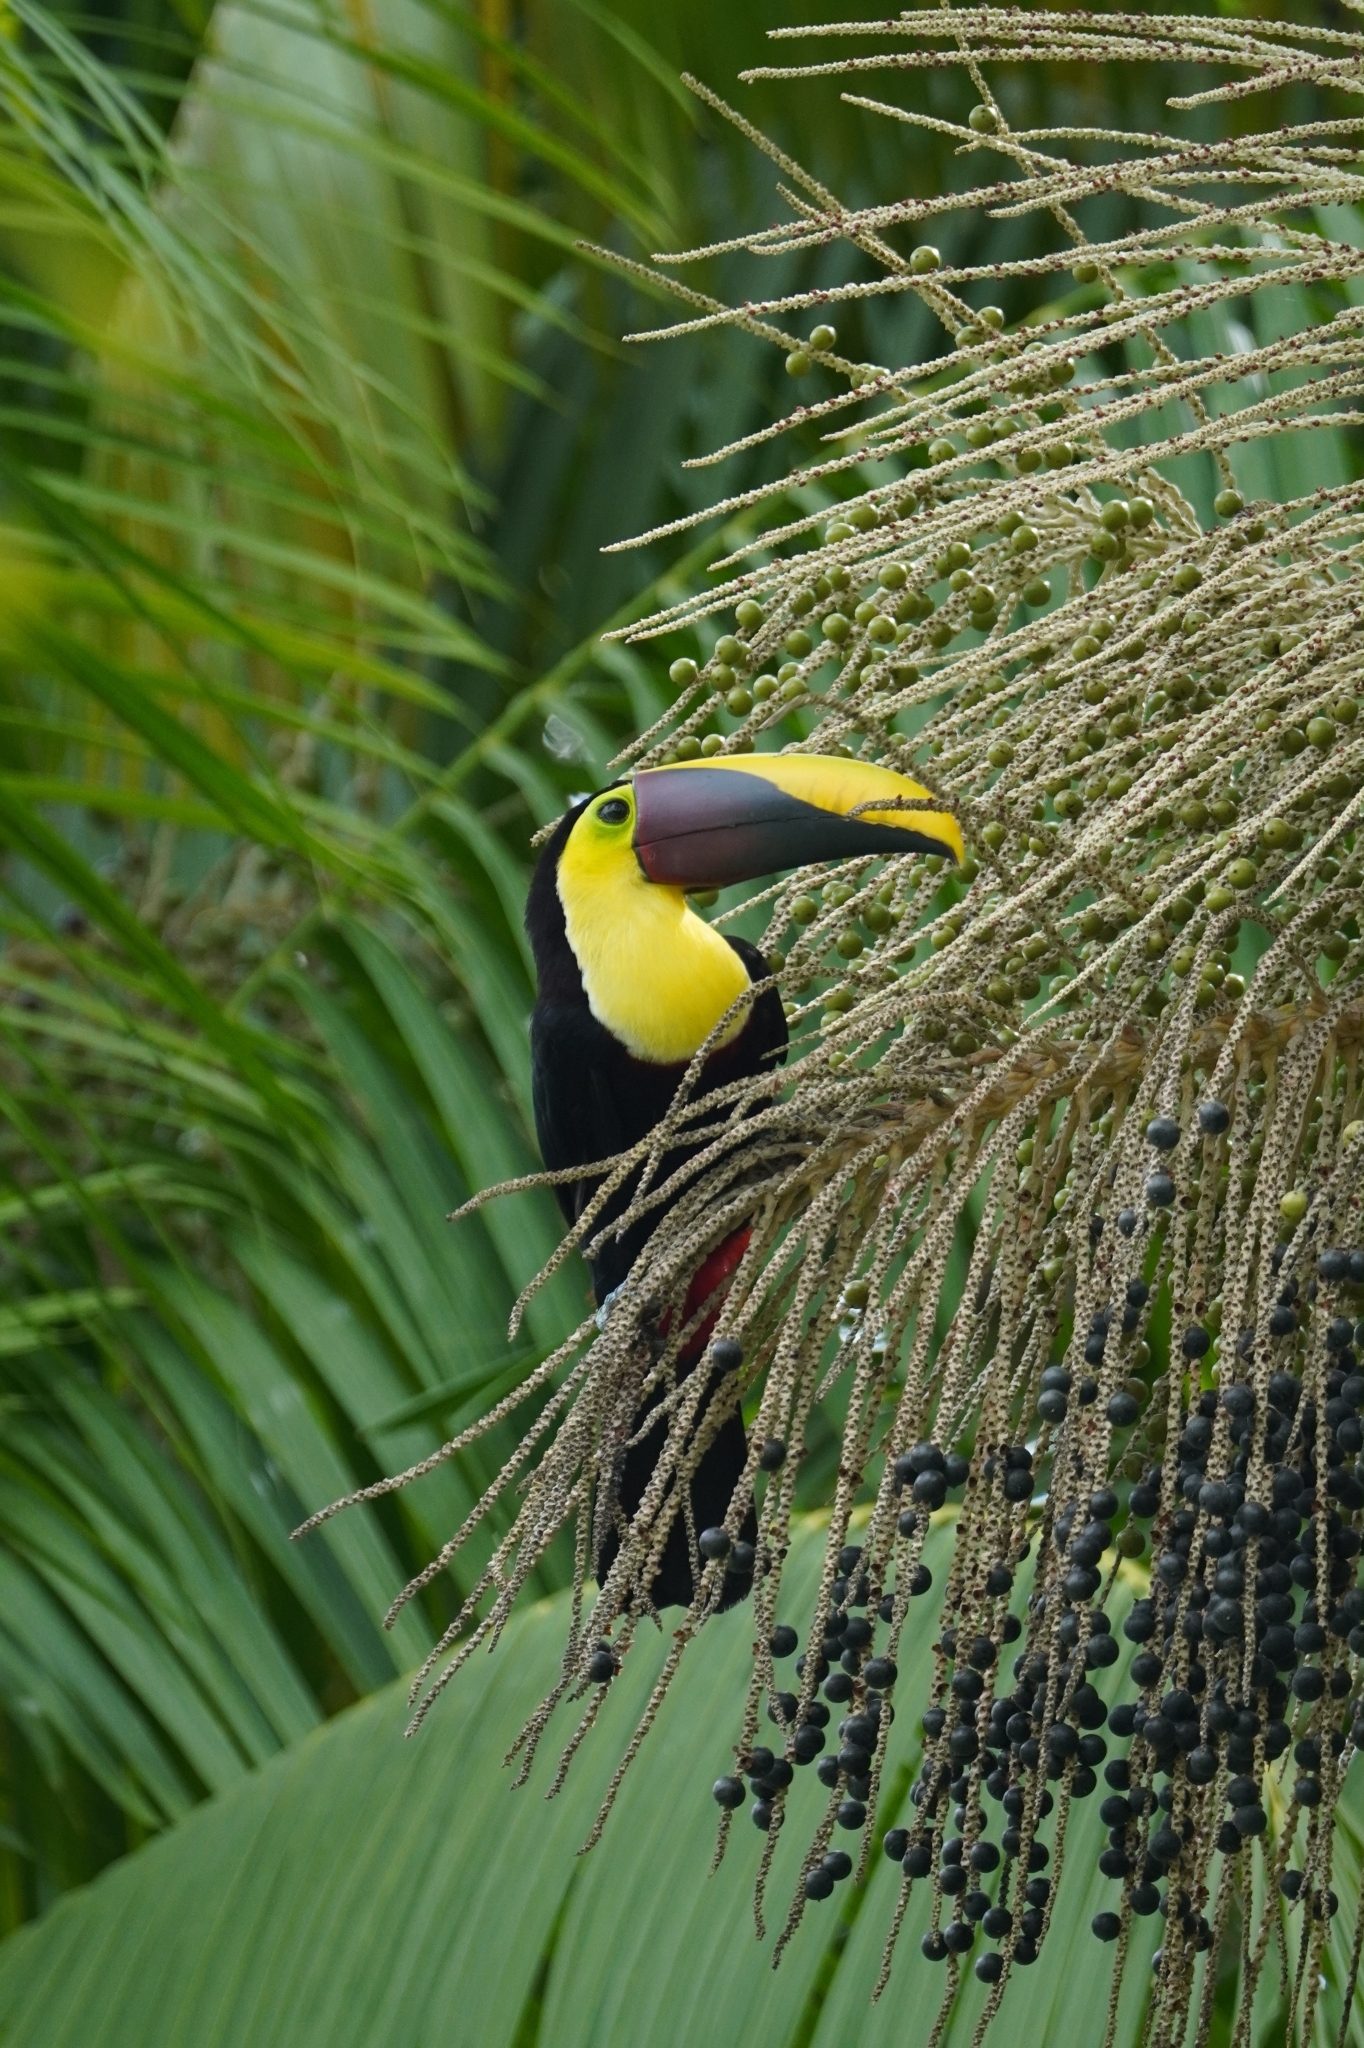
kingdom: Animalia
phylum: Chordata
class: Aves
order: Piciformes
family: Ramphastidae
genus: Ramphastos
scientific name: Ramphastos ambiguus
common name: Yellow-throated toucan
